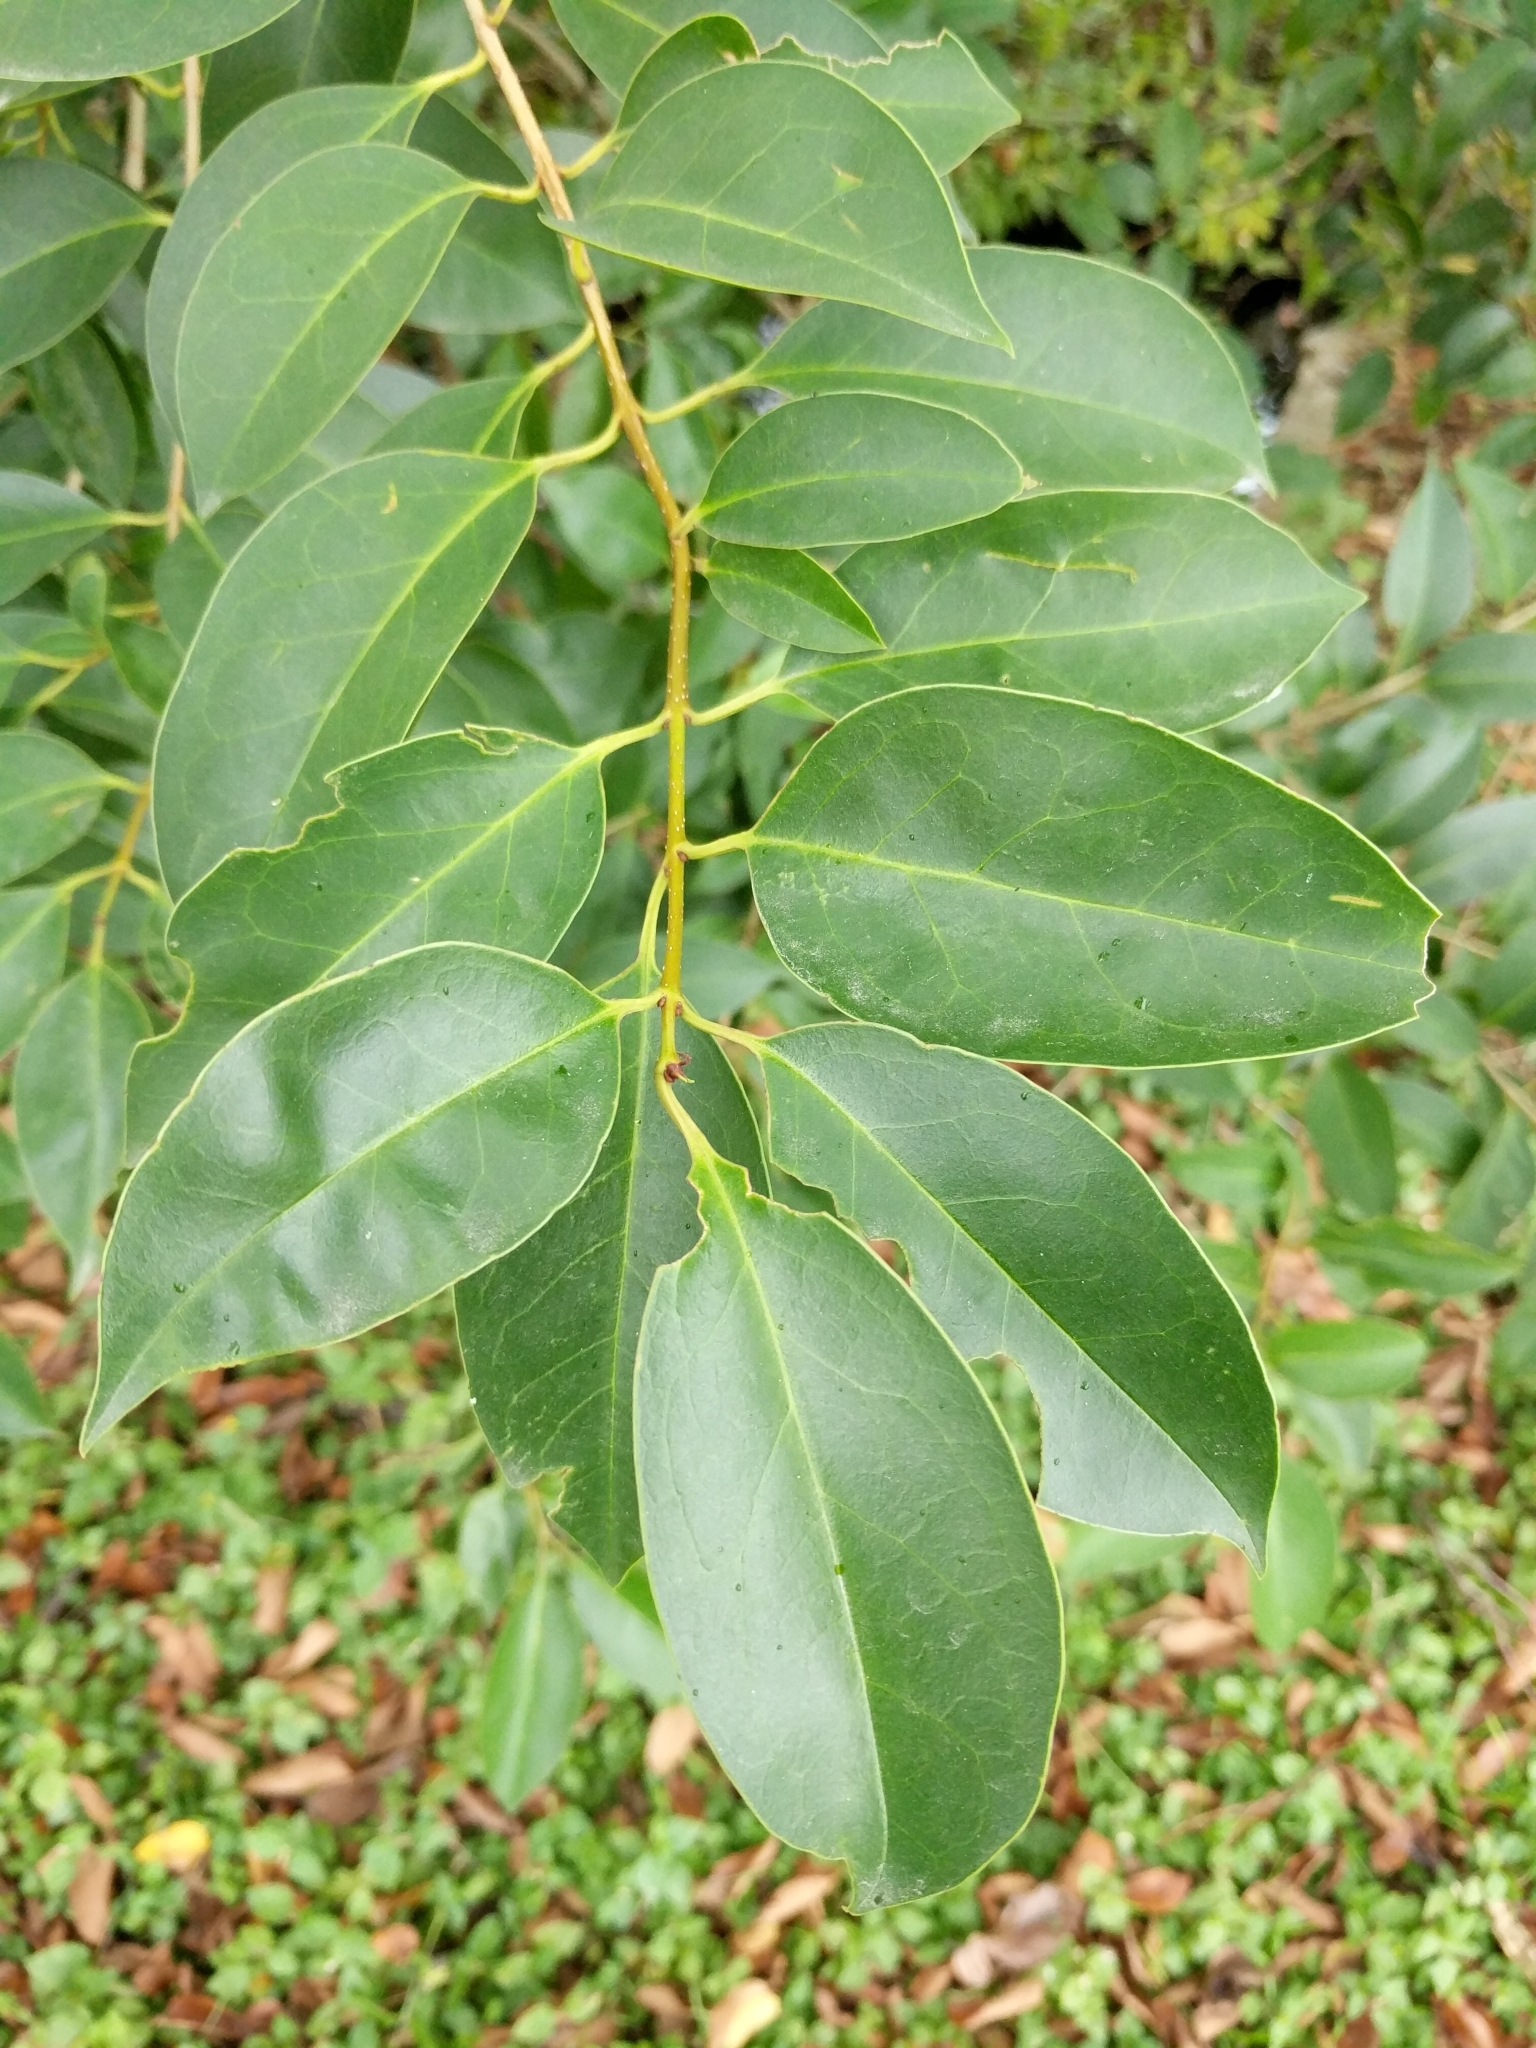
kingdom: Plantae
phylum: Tracheophyta
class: Magnoliopsida
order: Lamiales
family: Oleaceae
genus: Ligustrum
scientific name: Ligustrum lucidum
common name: Glossy privet
